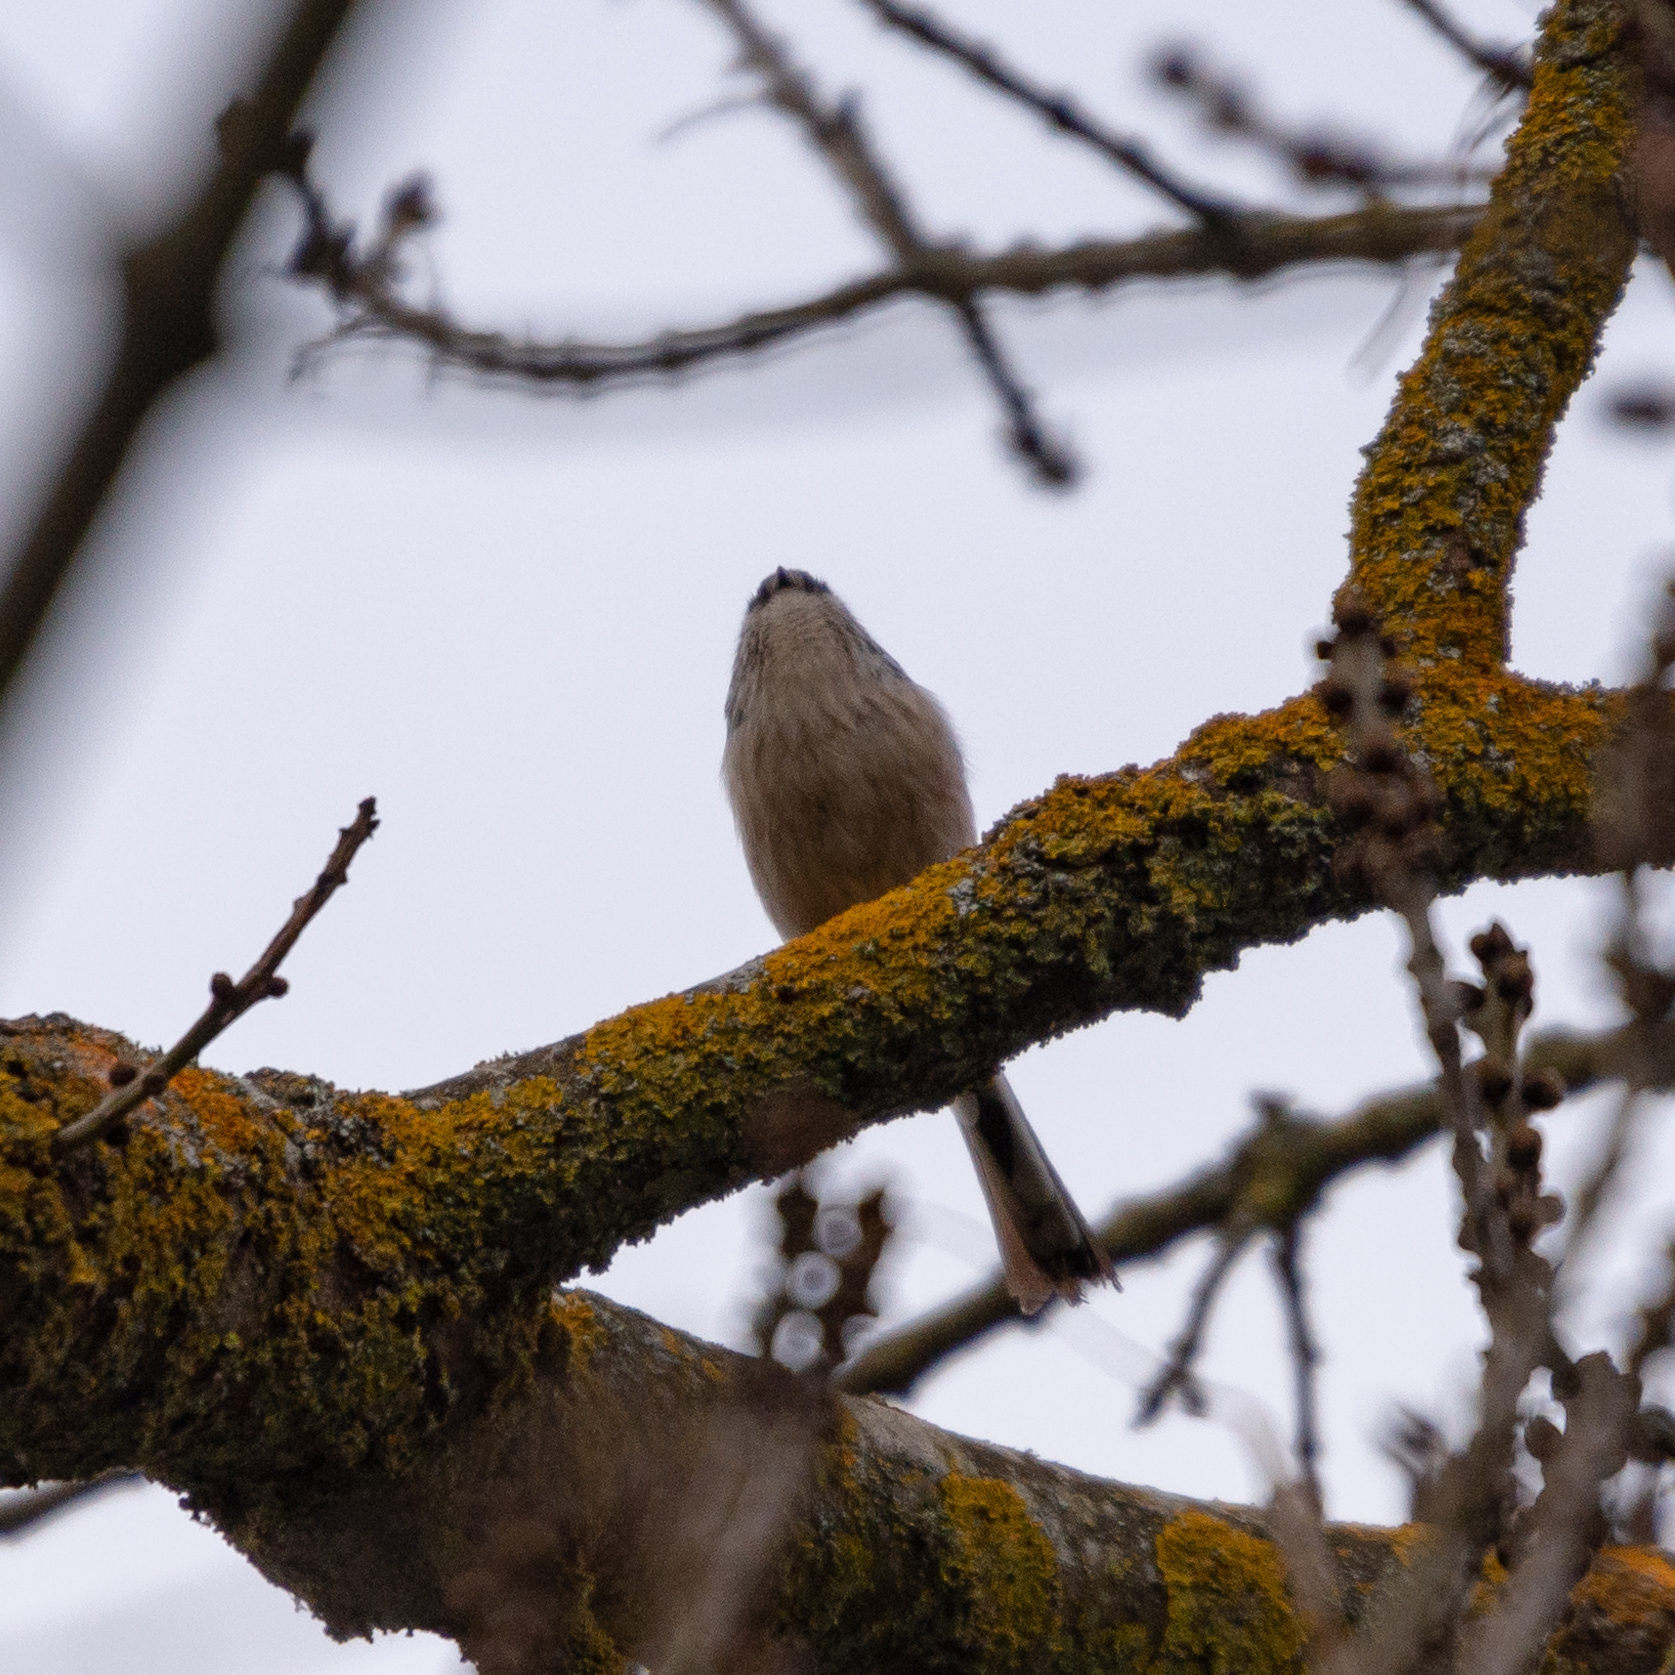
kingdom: Animalia
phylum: Chordata
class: Aves
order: Passeriformes
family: Aegithalidae
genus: Aegithalos
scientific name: Aegithalos caudatus
